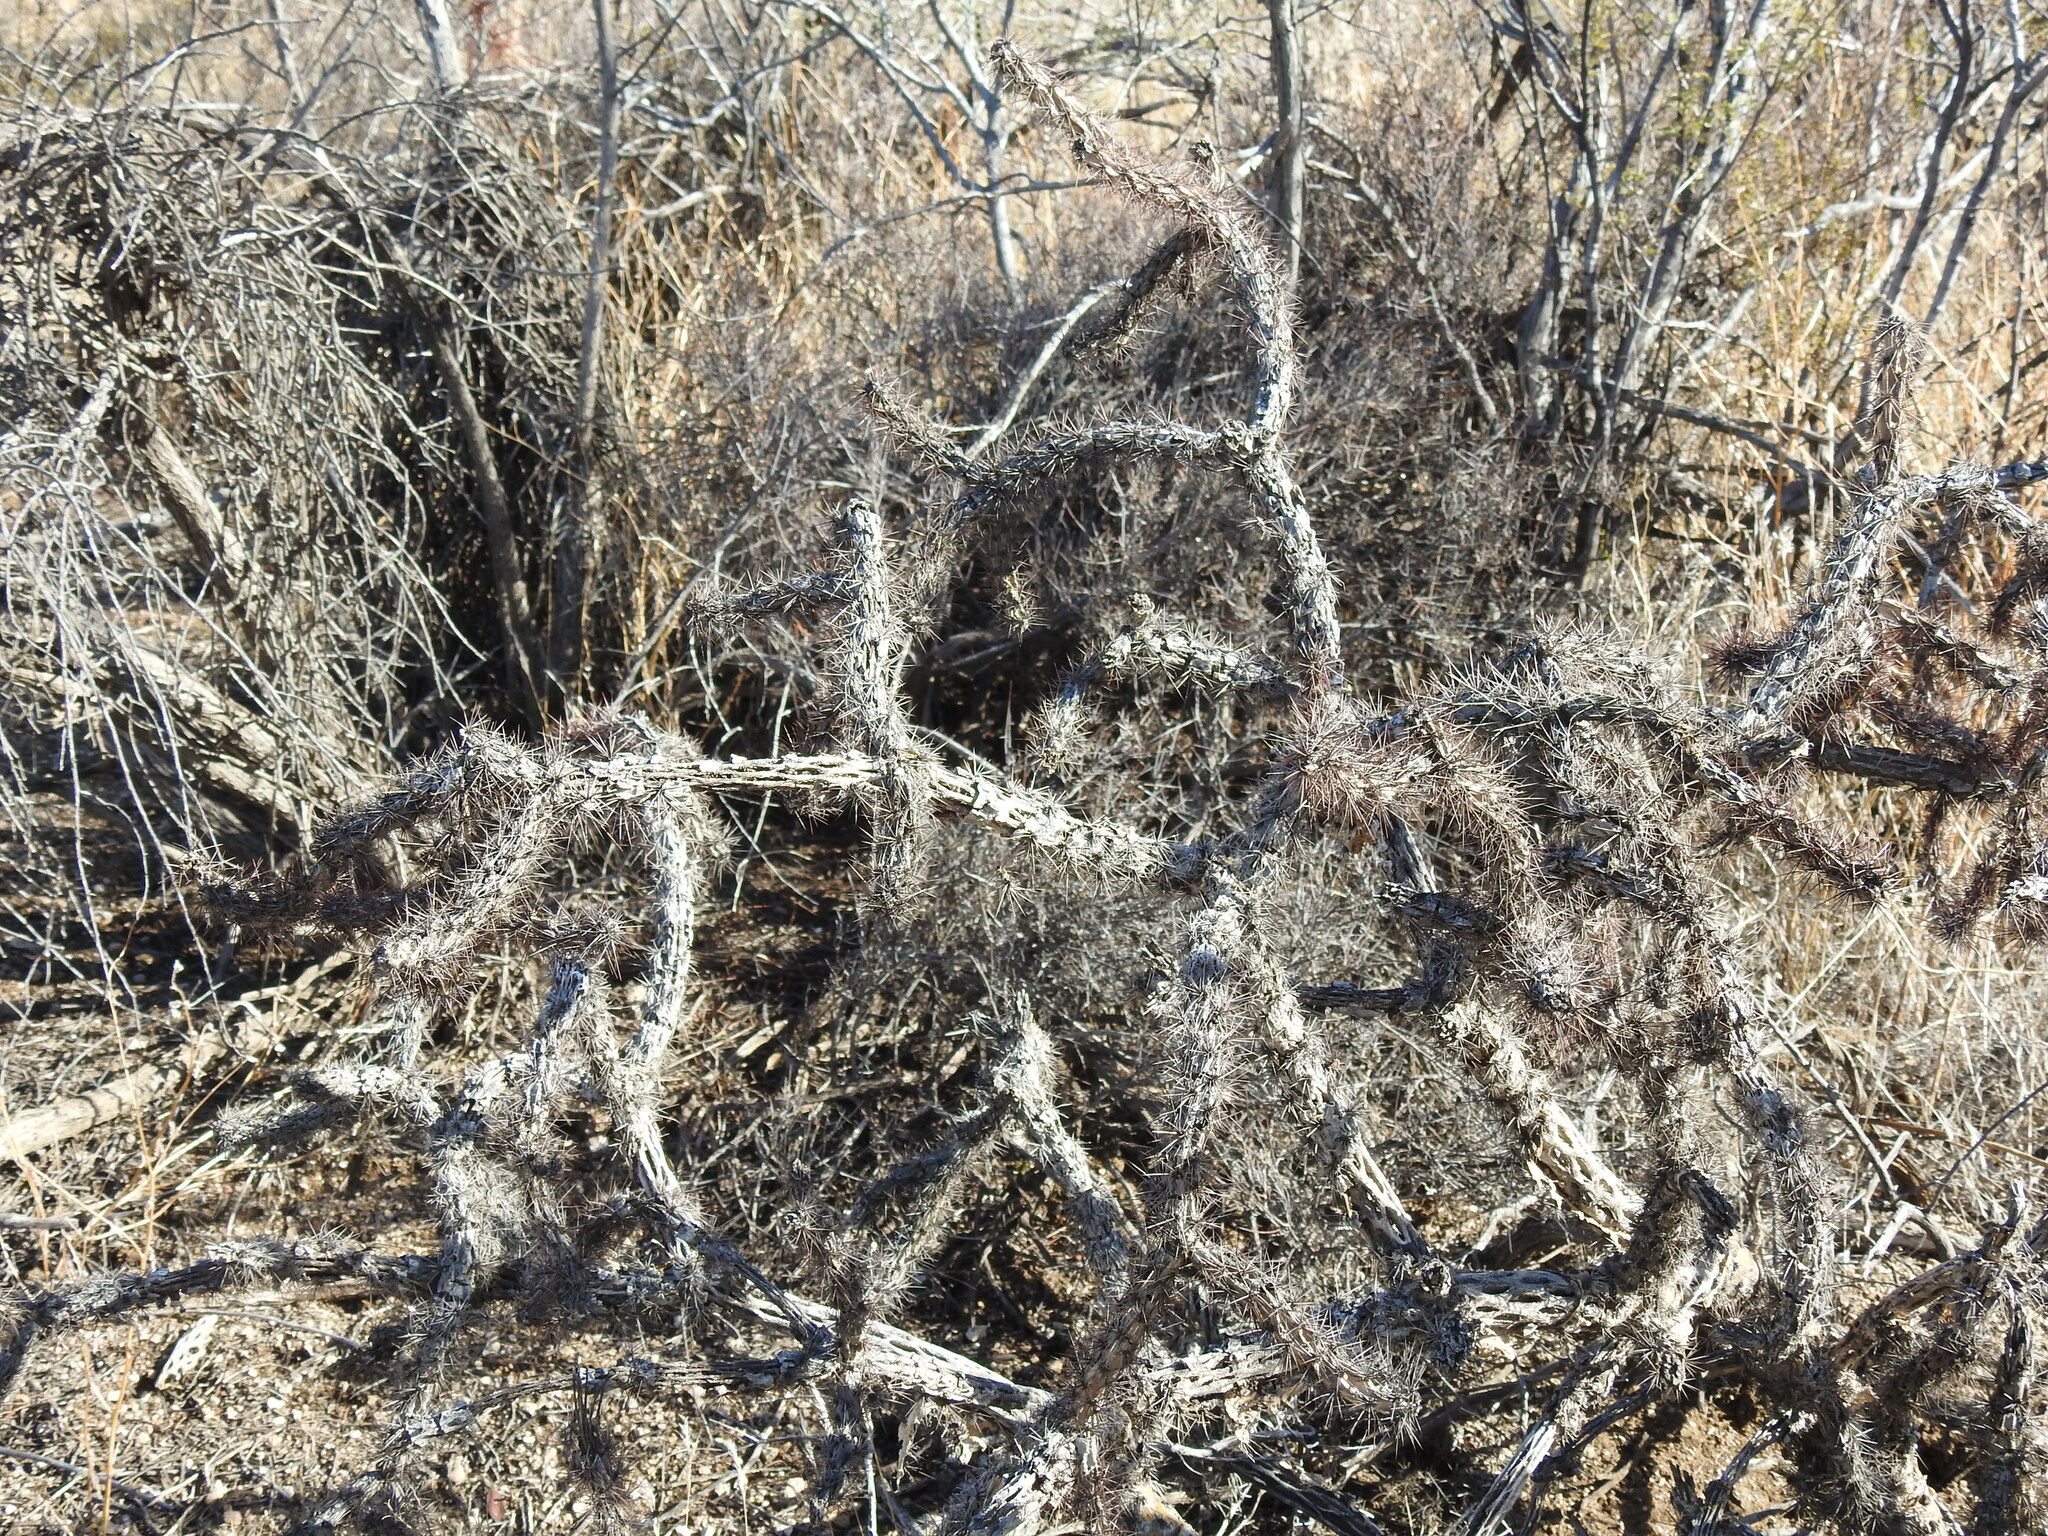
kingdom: Plantae
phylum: Tracheophyta
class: Magnoliopsida
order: Caryophyllales
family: Cactaceae
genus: Cylindropuntia
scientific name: Cylindropuntia acanthocarpa
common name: Buckhorn cholla
